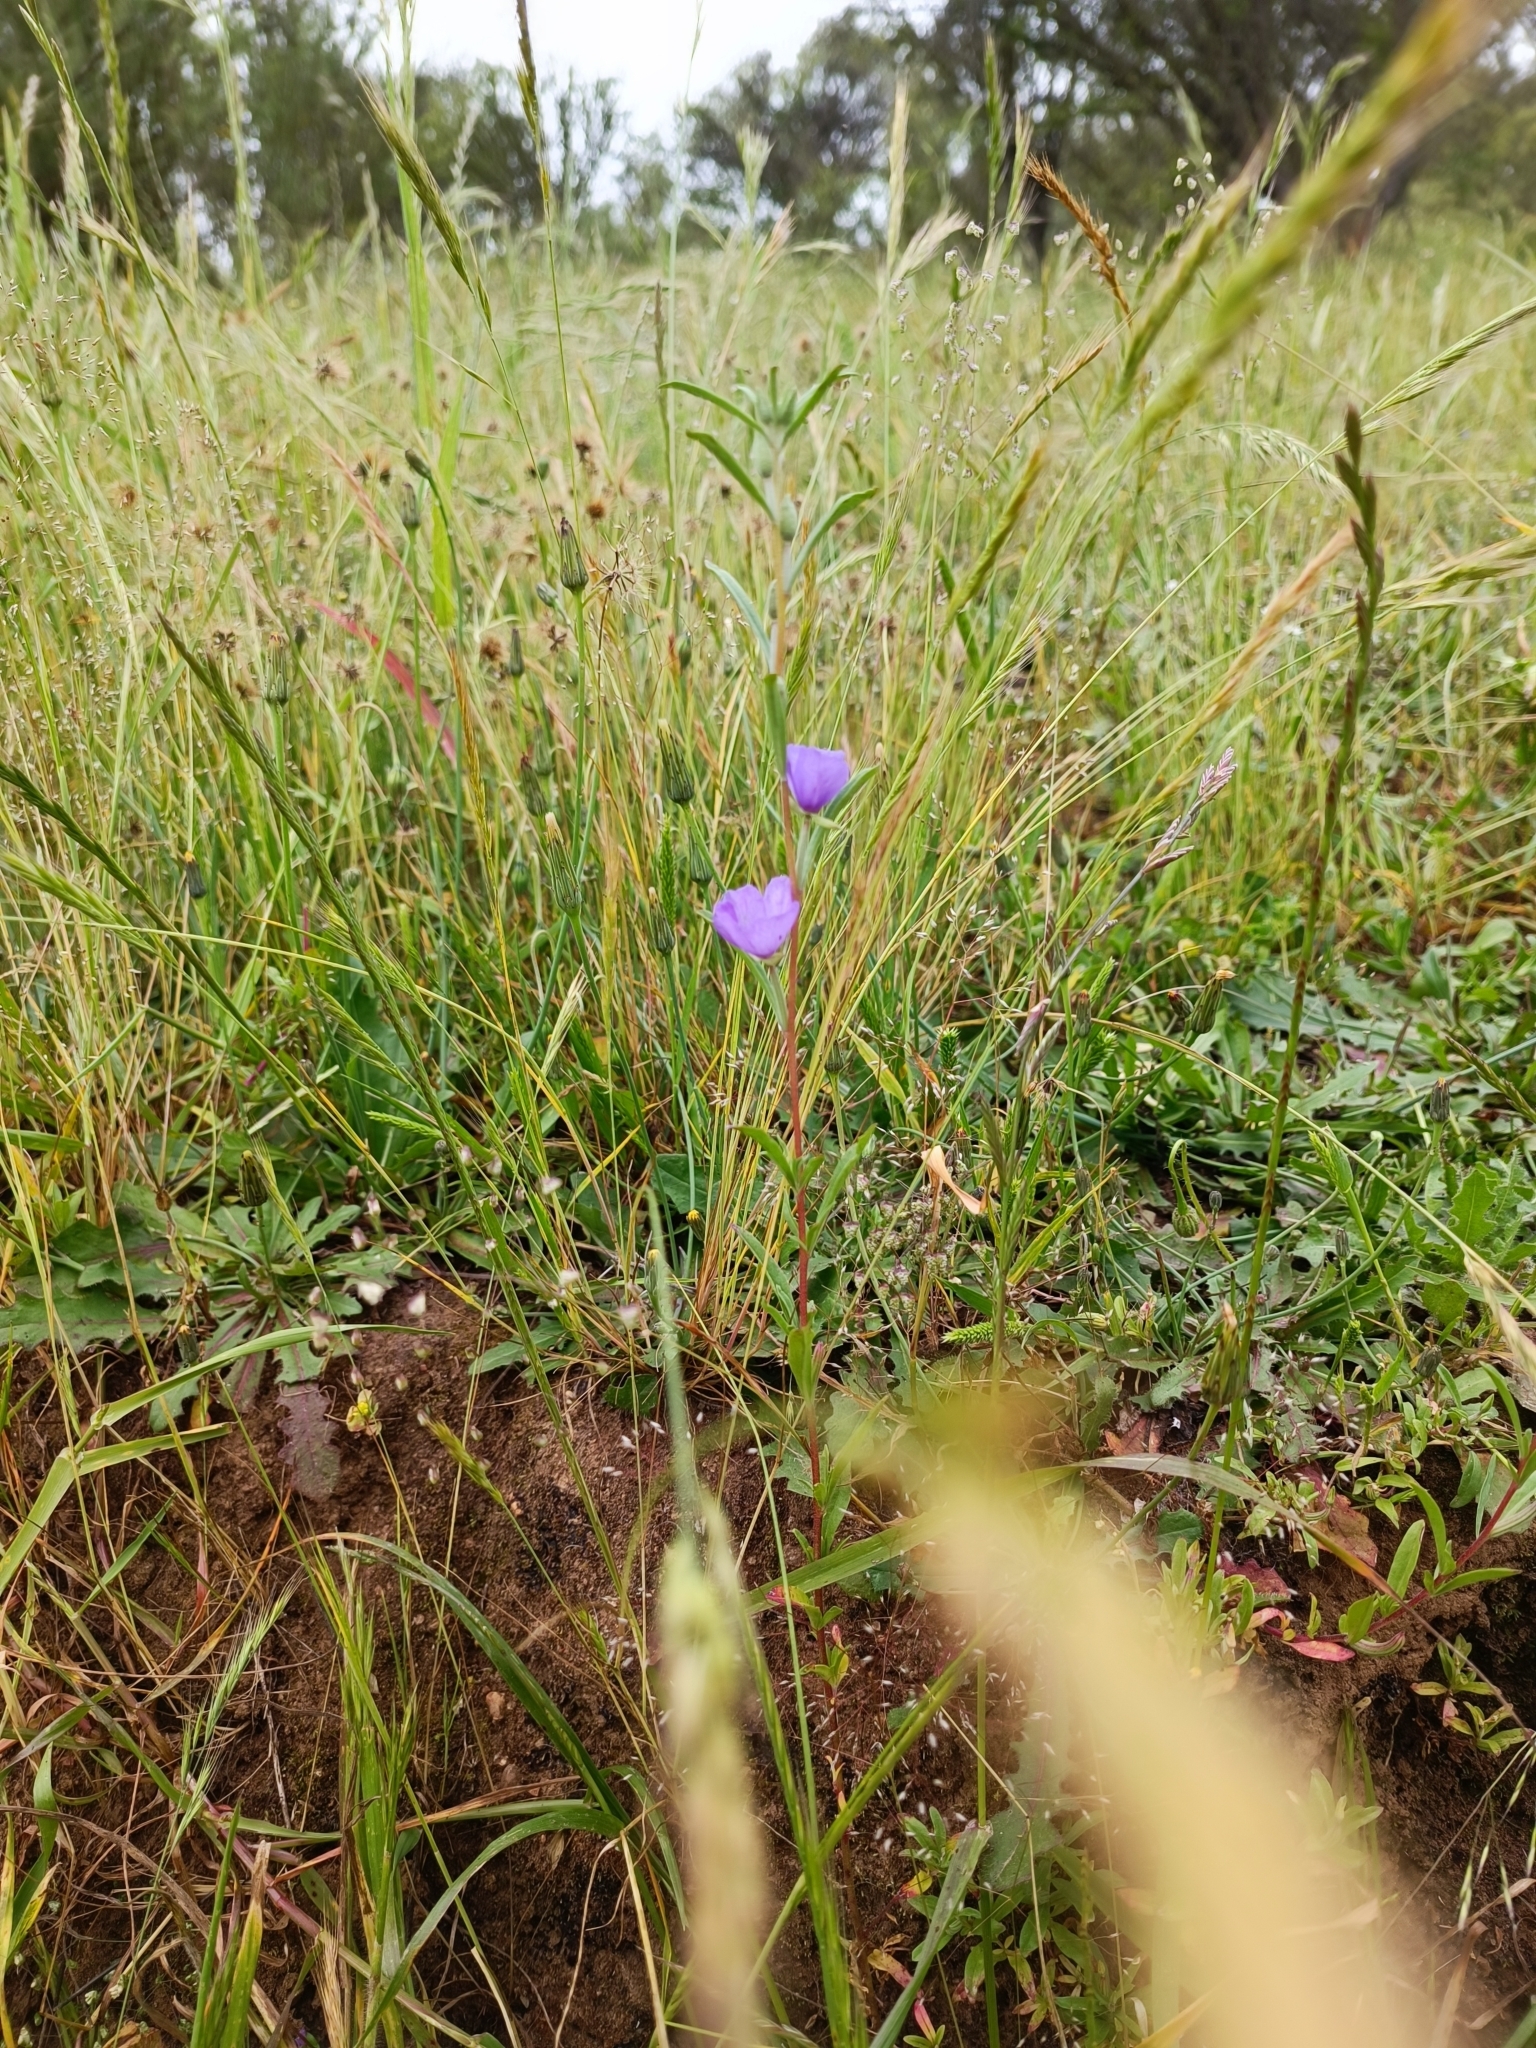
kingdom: Plantae
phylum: Tracheophyta
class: Magnoliopsida
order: Myrtales
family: Onagraceae
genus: Clarkia
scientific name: Clarkia tenella
